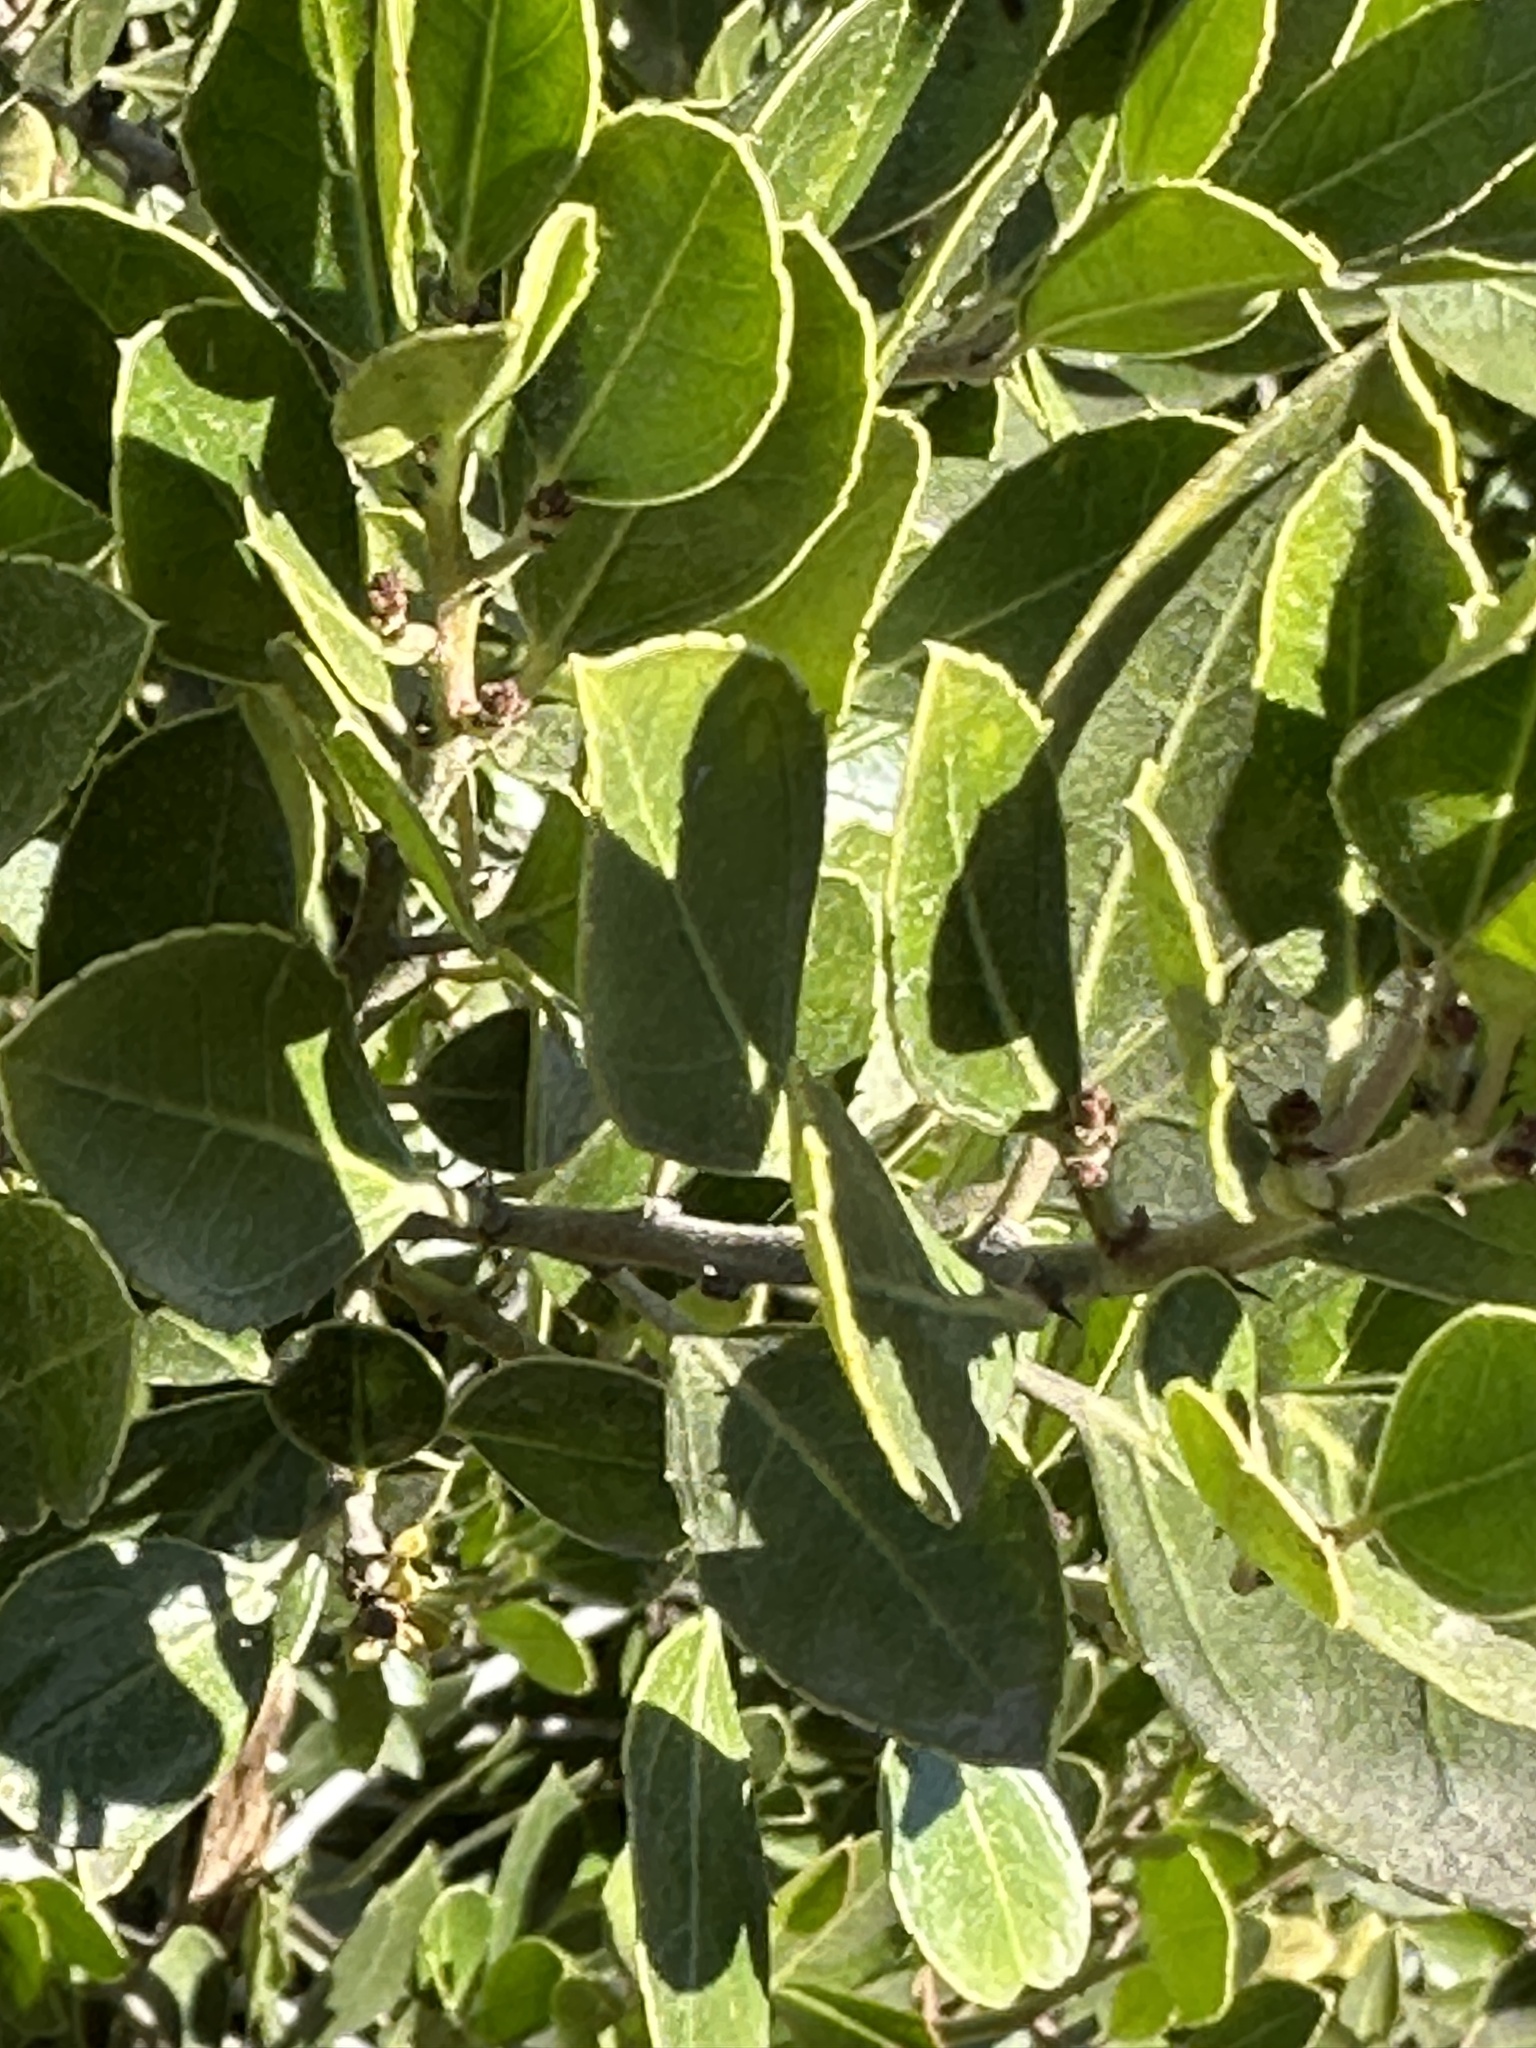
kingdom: Plantae
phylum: Tracheophyta
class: Magnoliopsida
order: Rosales
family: Rhamnaceae
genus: Rhamnus
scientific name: Rhamnus alaternus
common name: Mediterranean buckthorn
